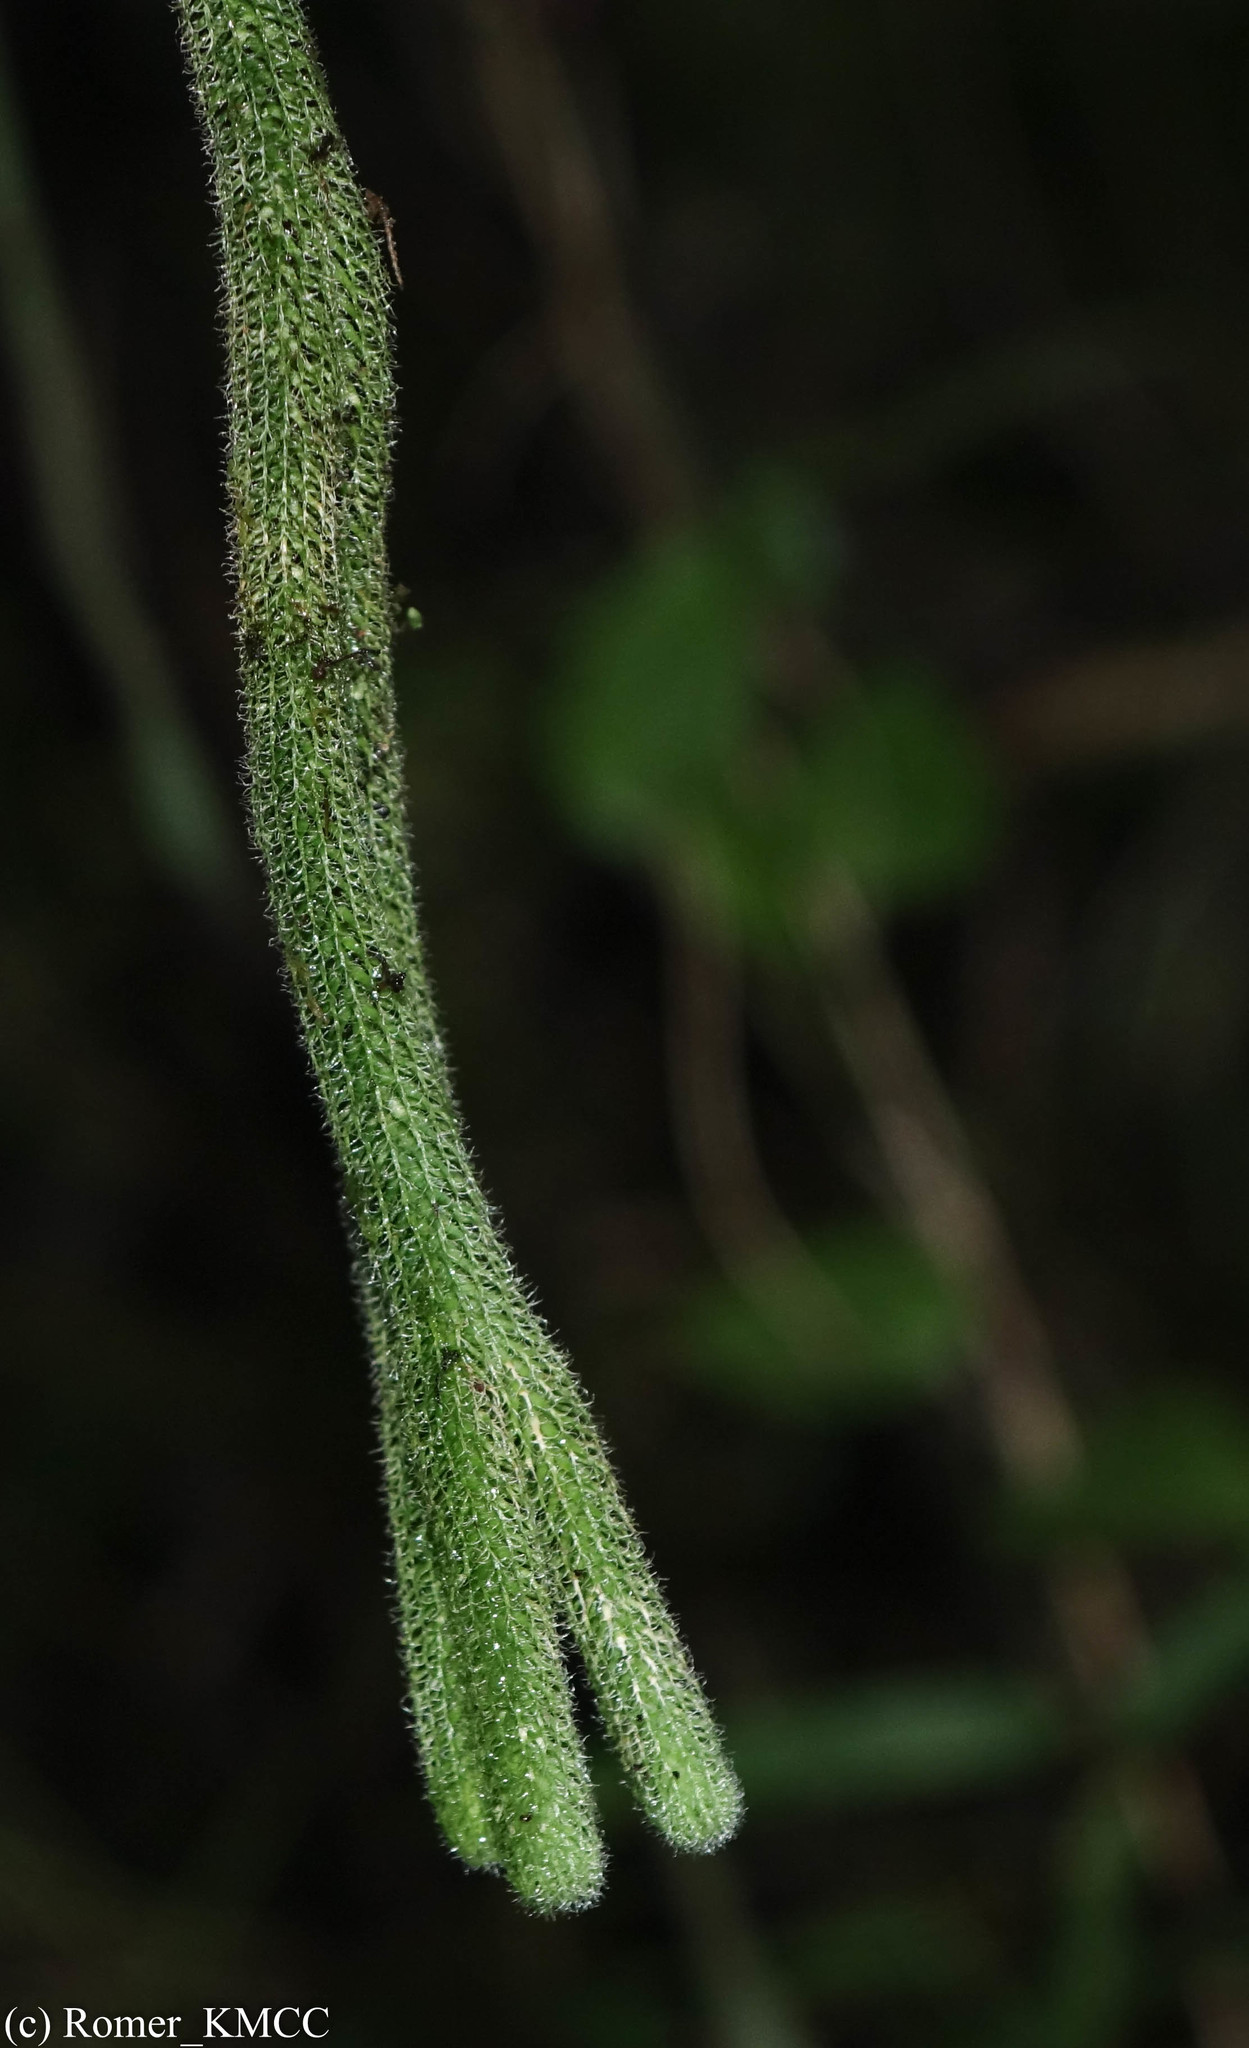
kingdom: Plantae
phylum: Tracheophyta
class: Lycopodiopsida
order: Lycopodiales
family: Lycopodiaceae
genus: Phlegmariurus
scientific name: Phlegmariurus pecten
